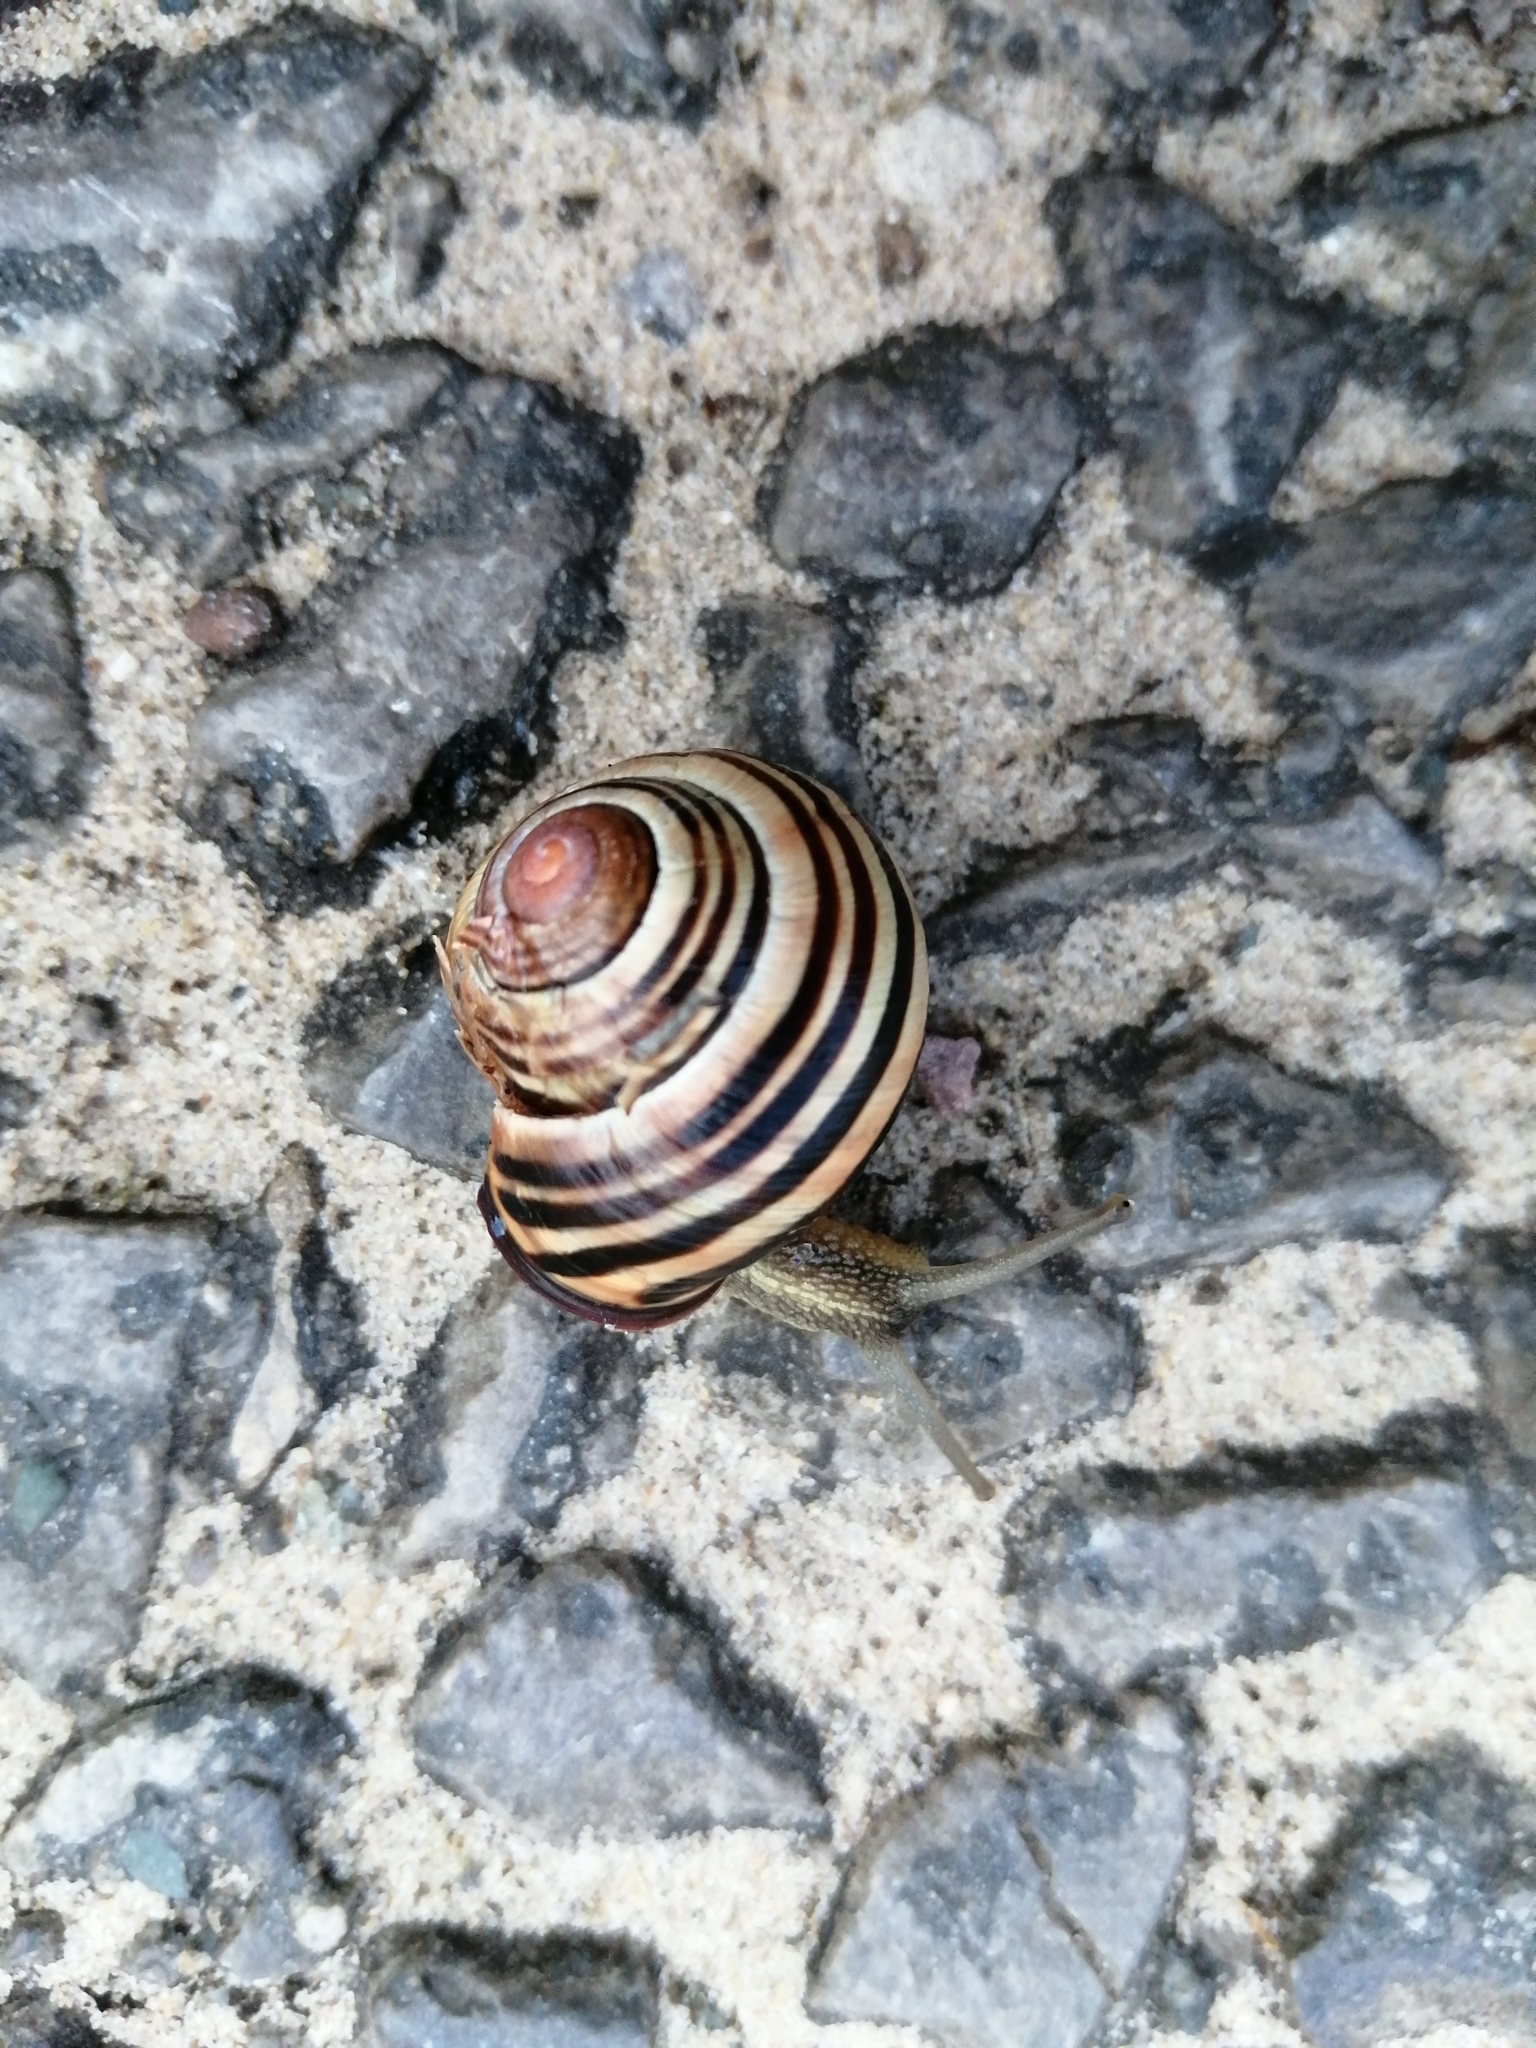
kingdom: Animalia
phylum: Mollusca
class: Gastropoda
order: Stylommatophora
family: Helicidae
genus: Cepaea
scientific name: Cepaea nemoralis
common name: Grovesnail
